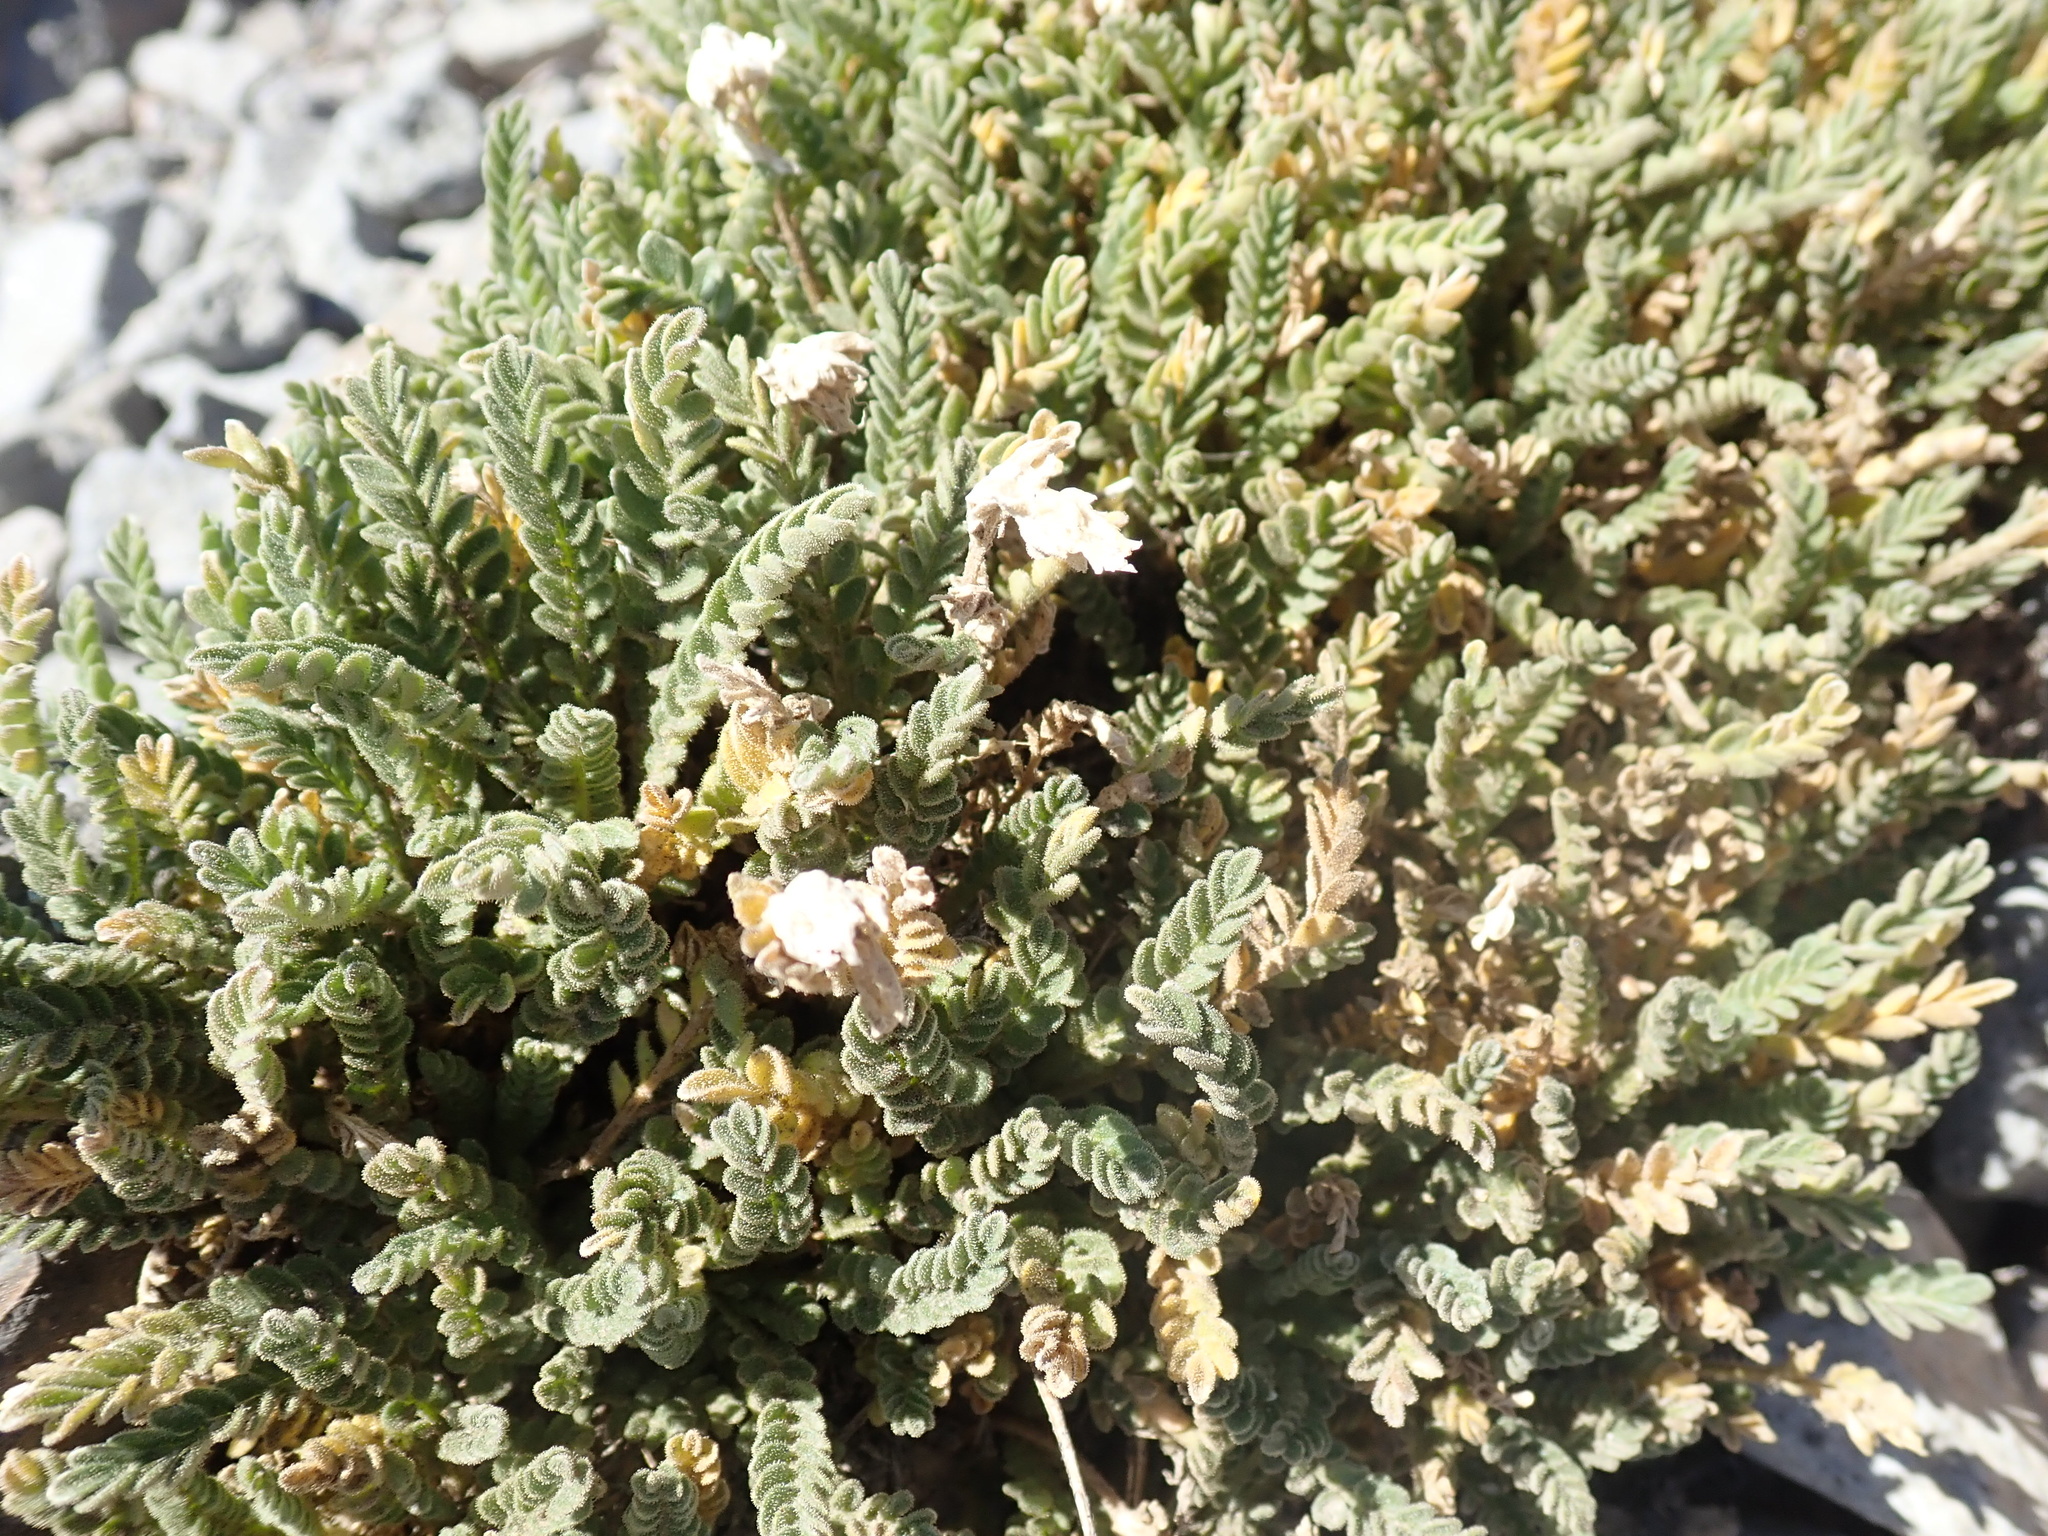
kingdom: Plantae
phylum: Tracheophyta
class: Magnoliopsida
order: Ericales
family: Polemoniaceae
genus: Polemonium
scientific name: Polemonium elegans
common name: Elegant jacob's-ladder
